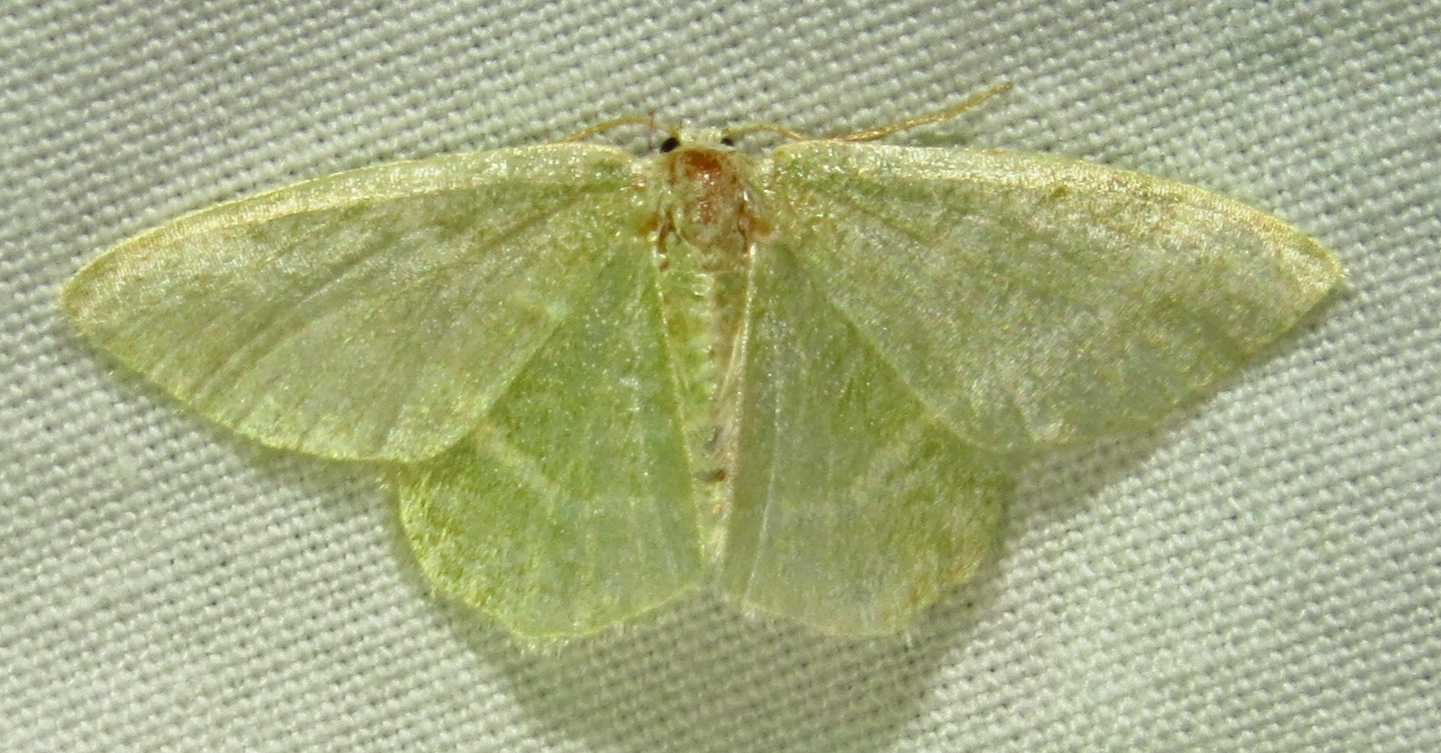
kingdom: Animalia
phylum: Arthropoda
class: Insecta
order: Lepidoptera
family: Geometridae
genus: Chlorochlamys
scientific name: Chlorochlamys chloroleucaria
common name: Blackberry looper
